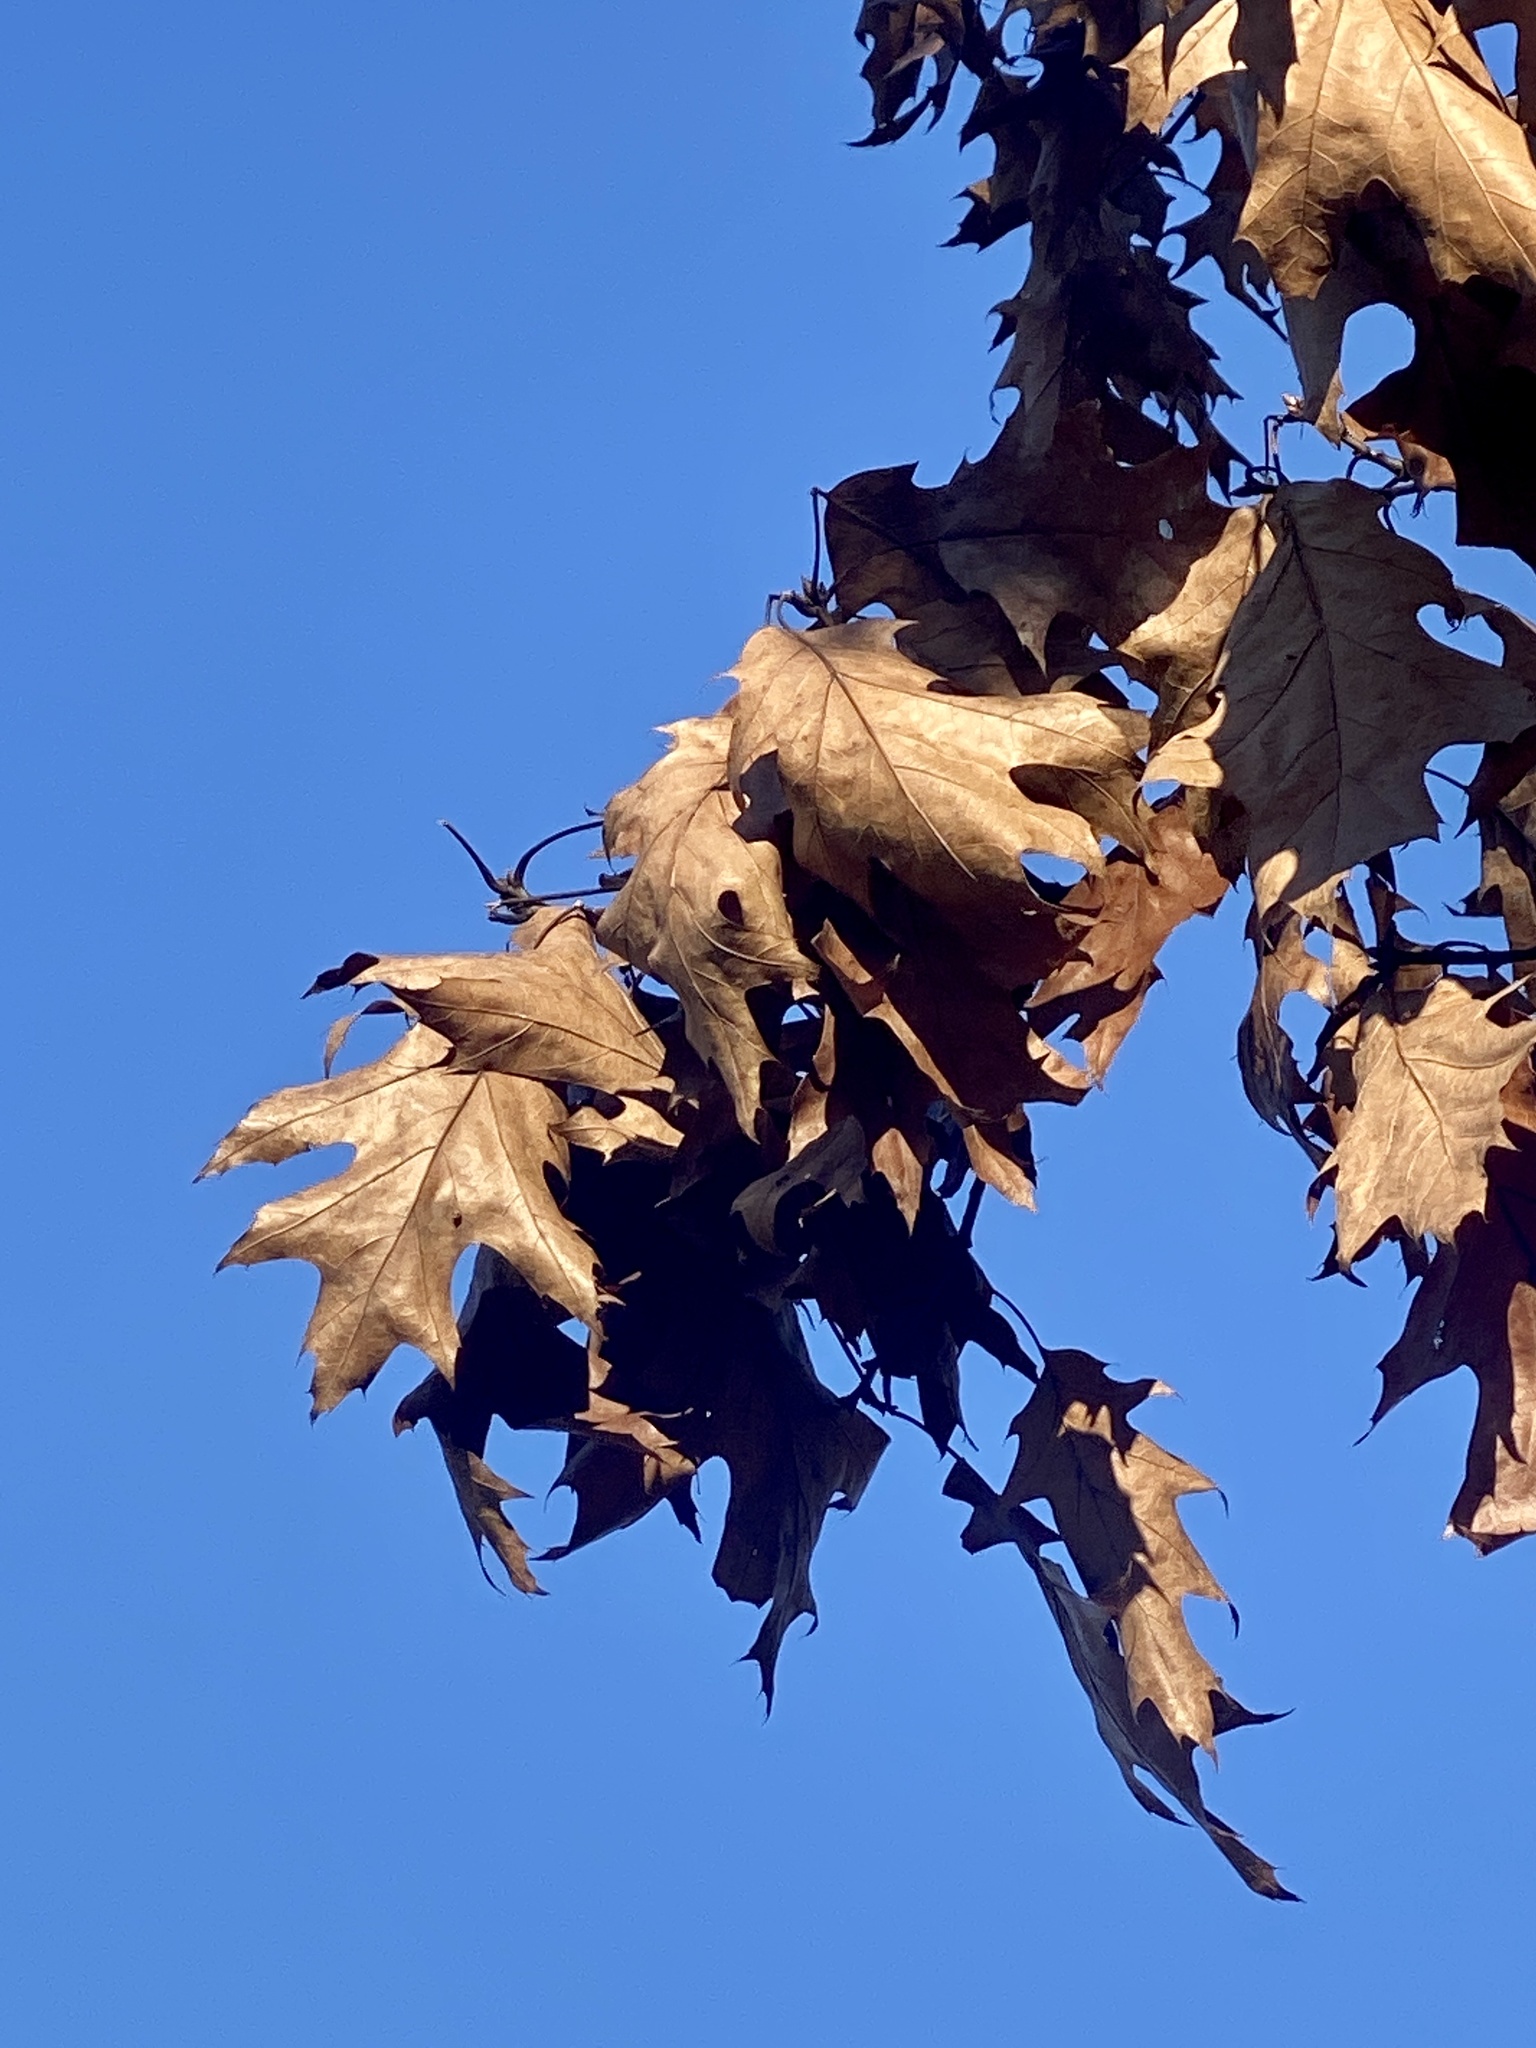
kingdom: Plantae
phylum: Tracheophyta
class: Magnoliopsida
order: Fagales
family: Fagaceae
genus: Quercus
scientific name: Quercus rubra
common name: Red oak
